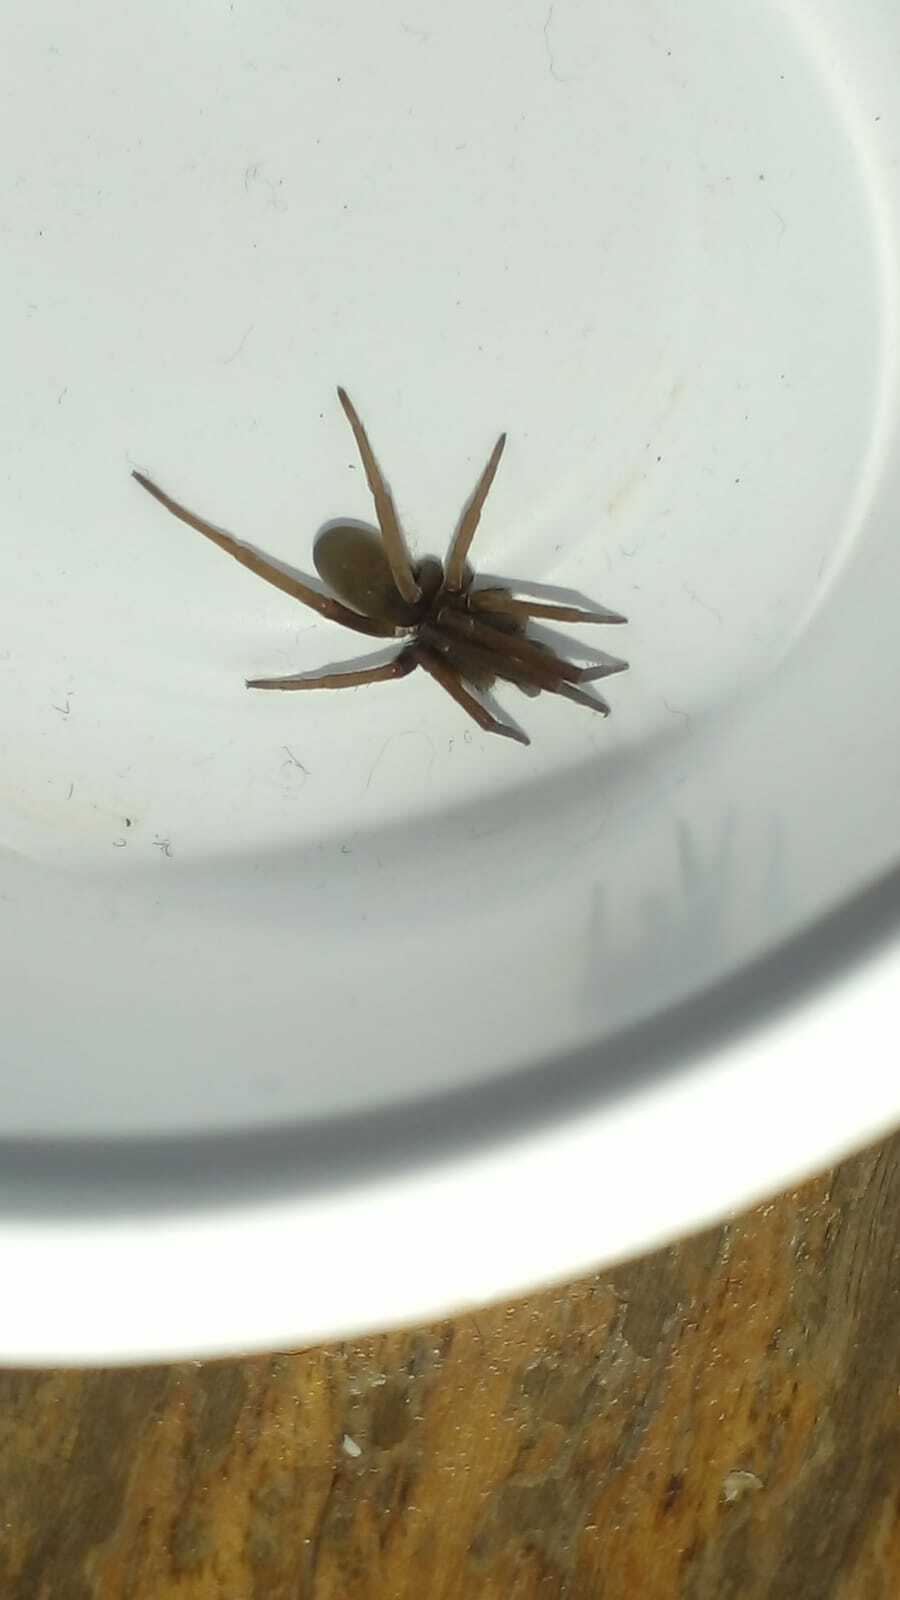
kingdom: Animalia
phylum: Arthropoda
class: Arachnida
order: Araneae
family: Filistatidae
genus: Kukulcania
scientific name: Kukulcania hibernalis
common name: Crevice weaver
